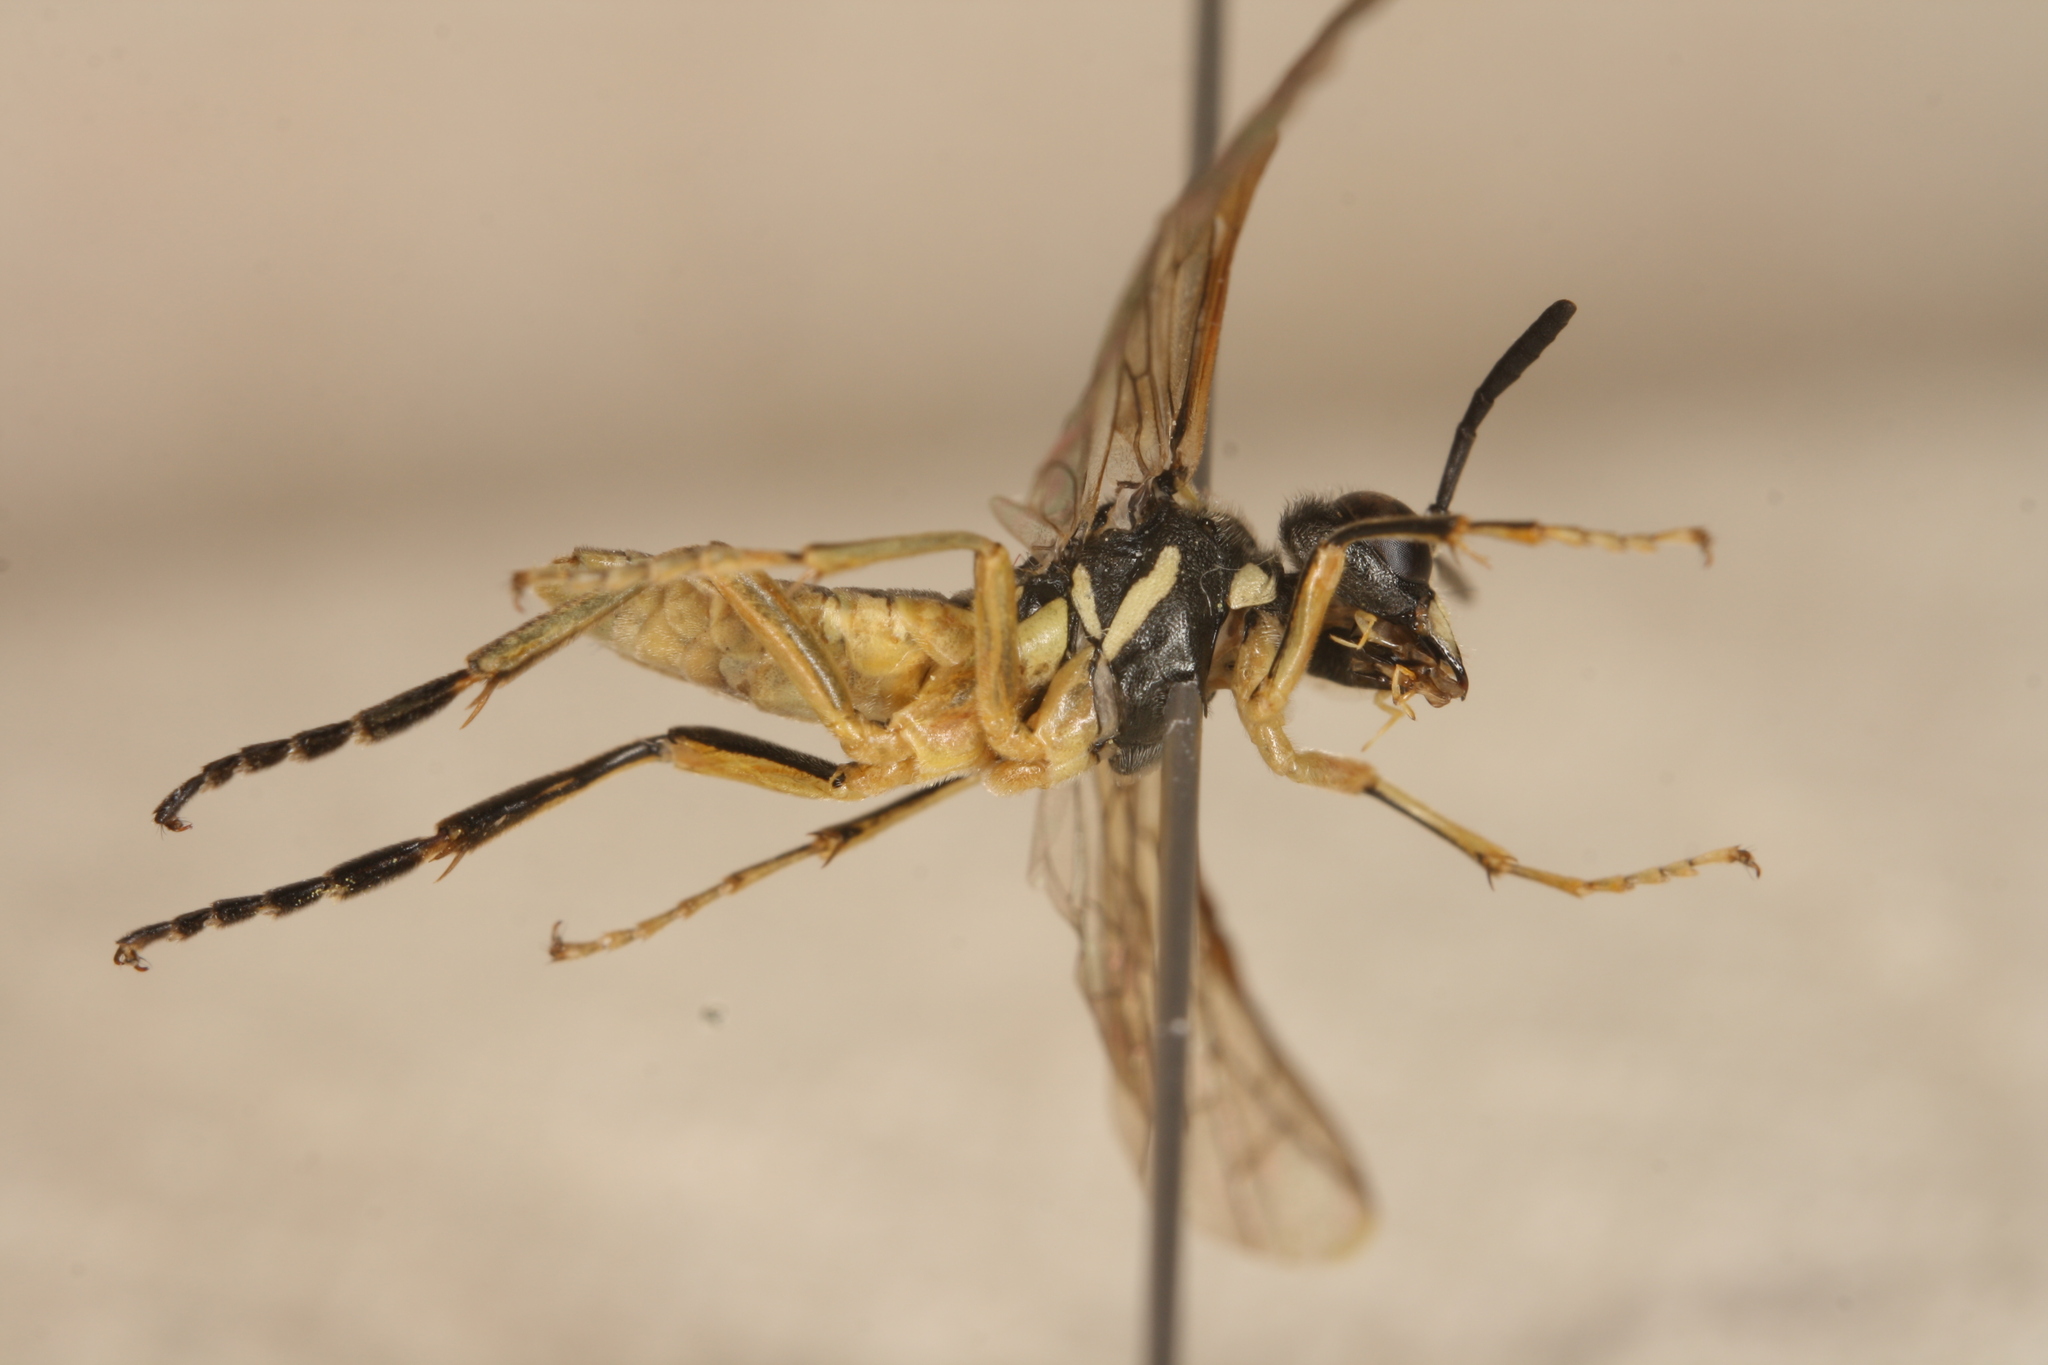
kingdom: Animalia
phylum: Arthropoda
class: Insecta
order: Hymenoptera
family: Tenthredinidae
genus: Tenthredo
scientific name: Tenthredo brevicornis
